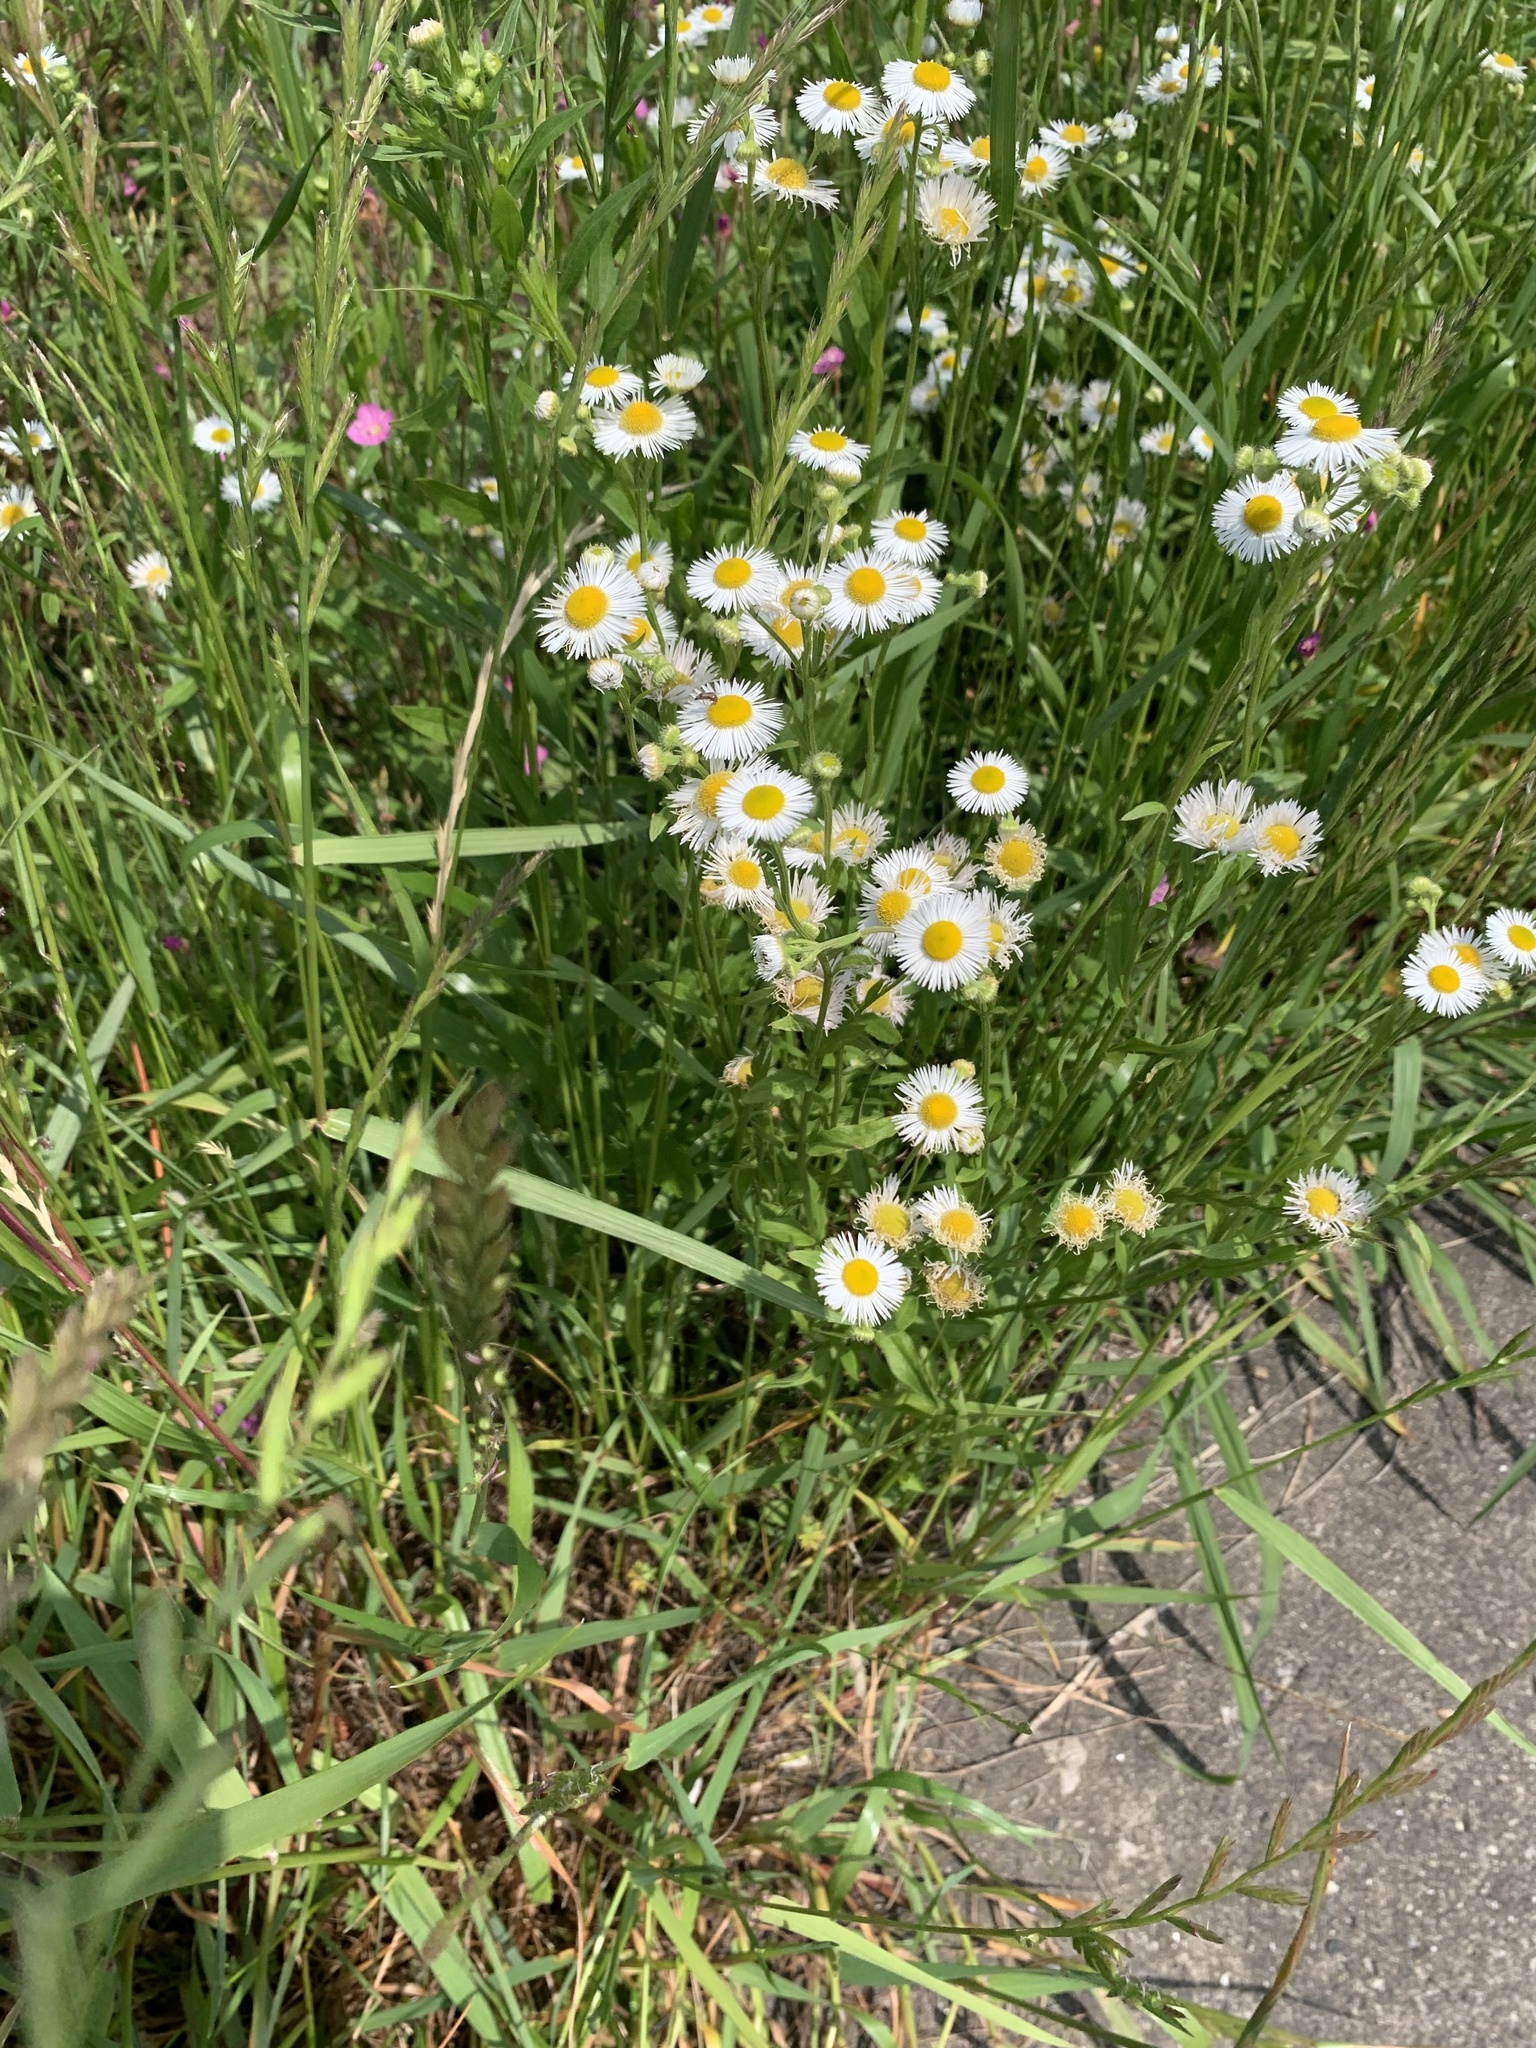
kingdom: Plantae
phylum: Tracheophyta
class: Magnoliopsida
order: Asterales
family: Asteraceae
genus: Erigeron
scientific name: Erigeron annuus
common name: Tall fleabane
